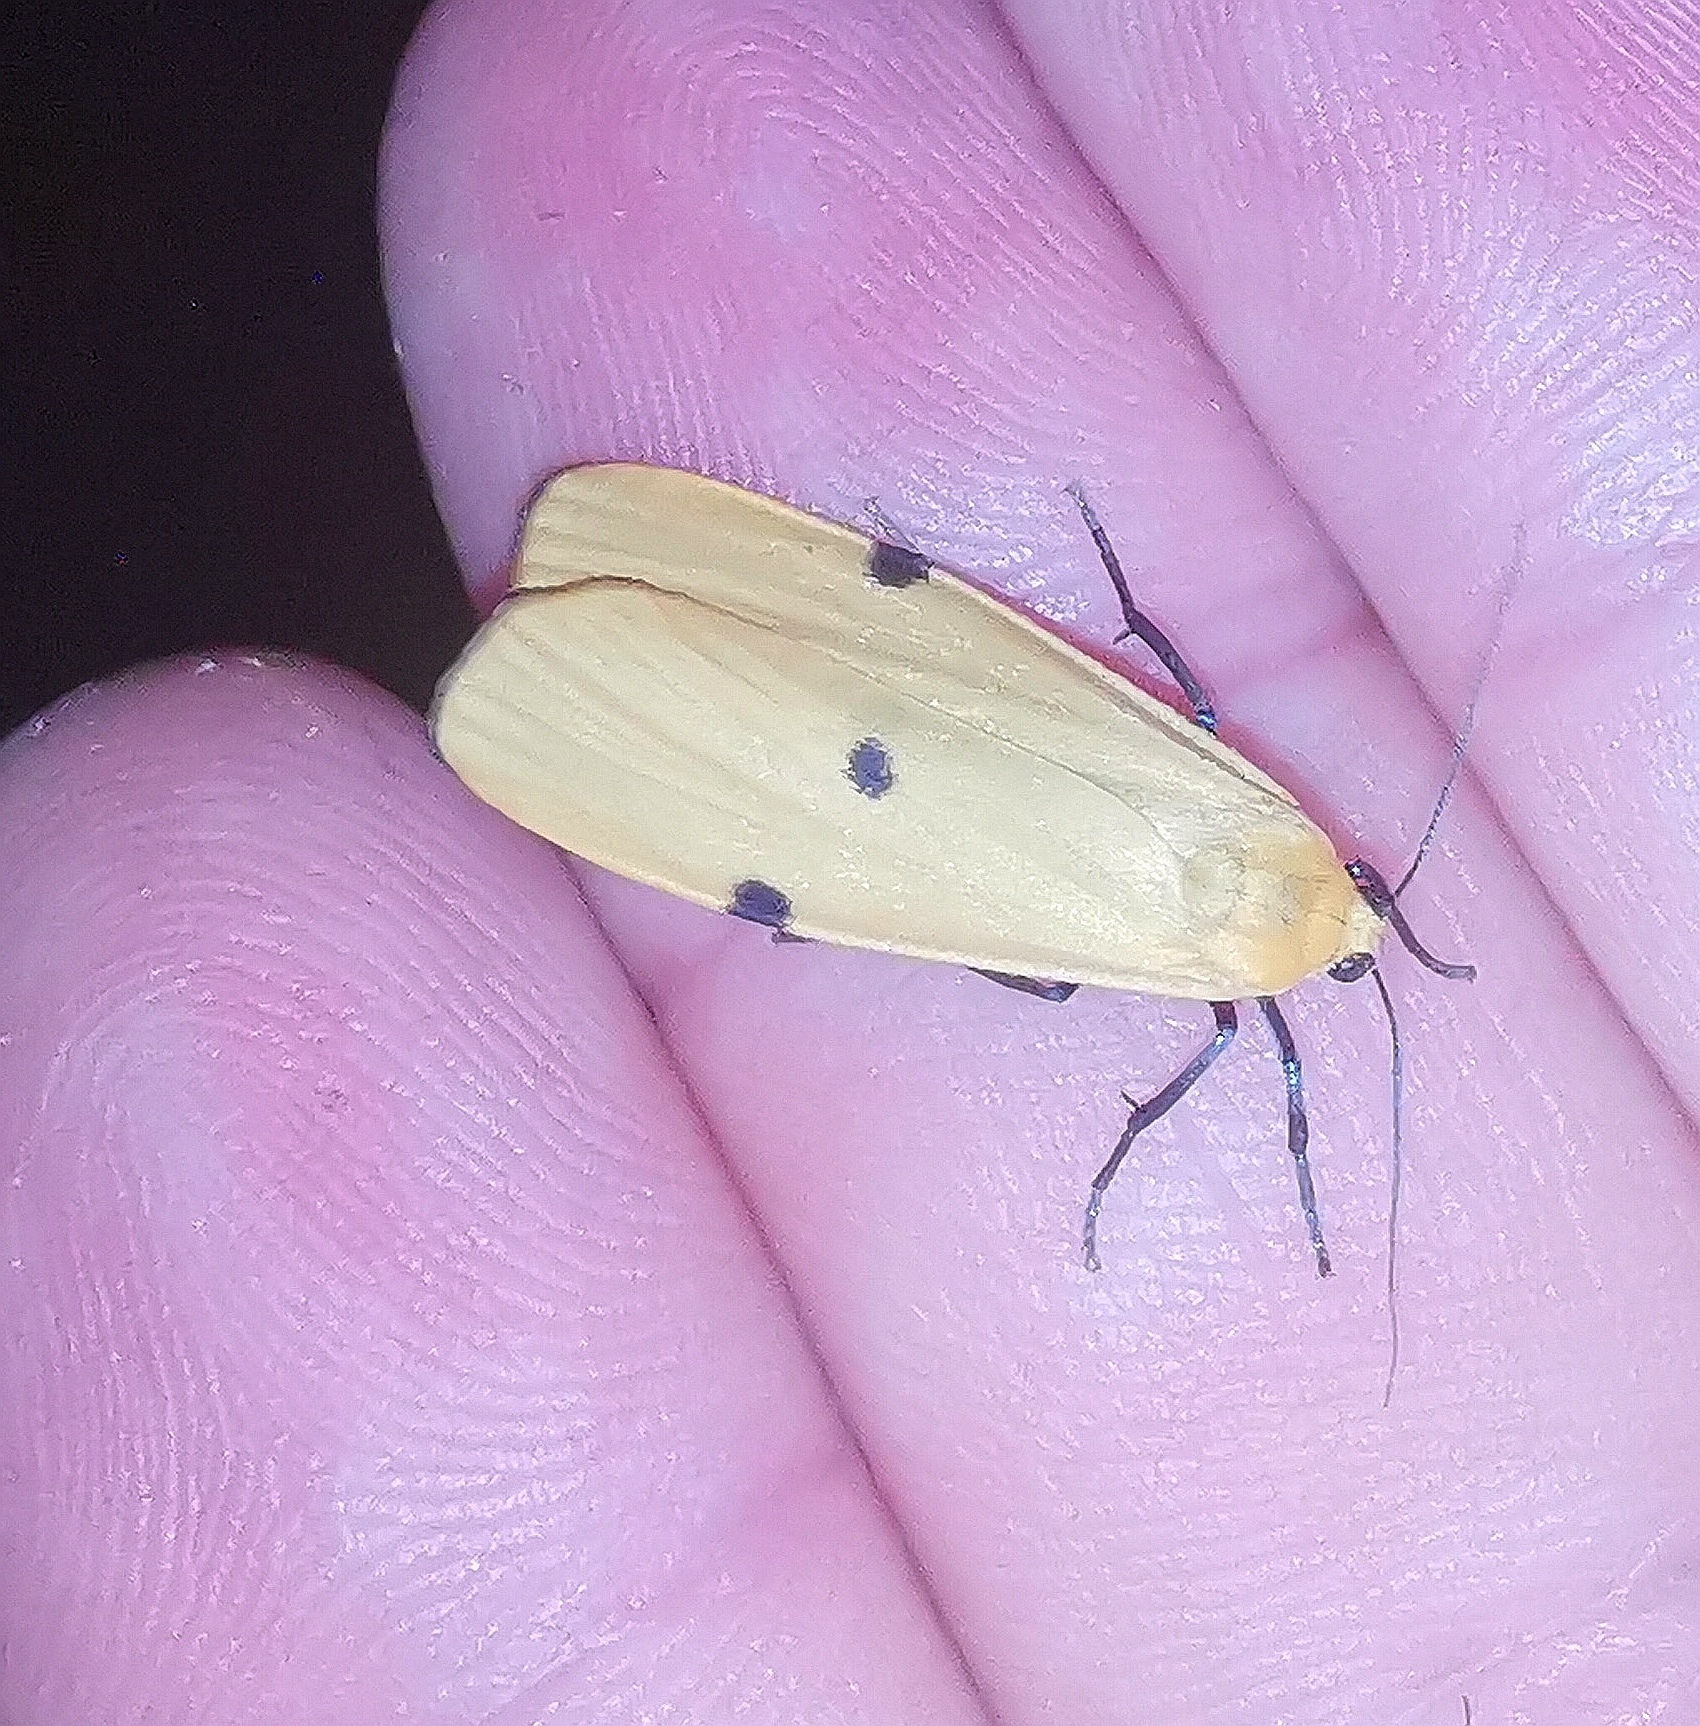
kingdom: Animalia
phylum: Arthropoda
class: Insecta
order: Lepidoptera
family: Erebidae
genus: Lithosia
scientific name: Lithosia quadra
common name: Four-spotted footman
